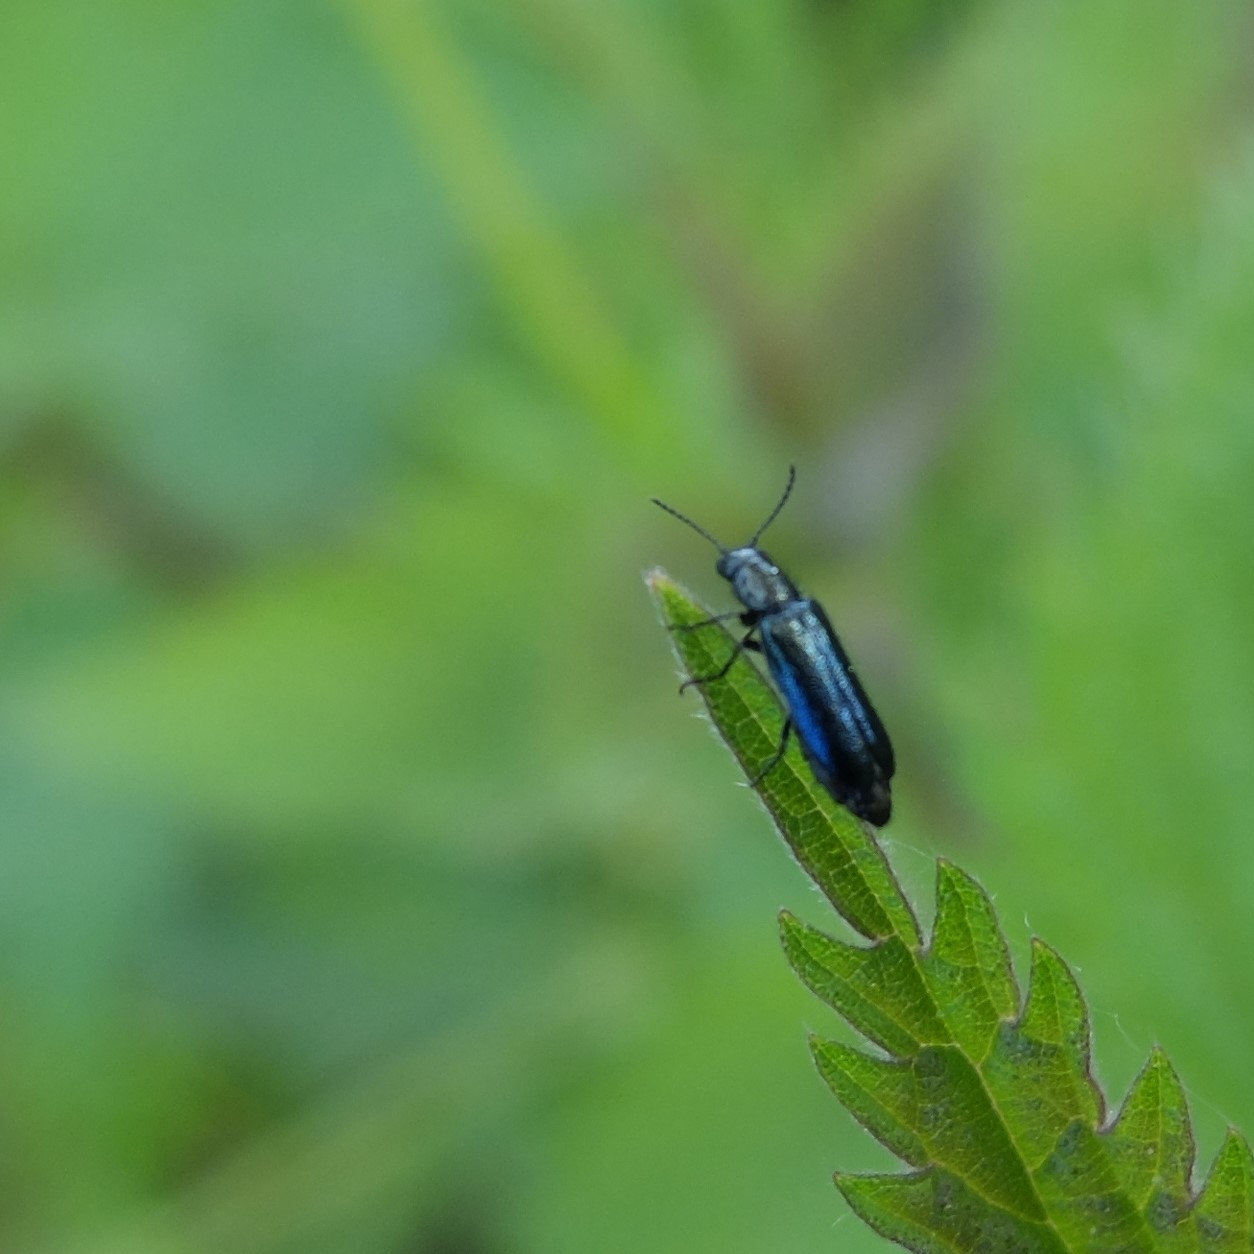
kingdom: Animalia
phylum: Arthropoda
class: Insecta
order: Coleoptera
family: Melyridae
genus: Dasytes
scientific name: Dasytes caeruleus
